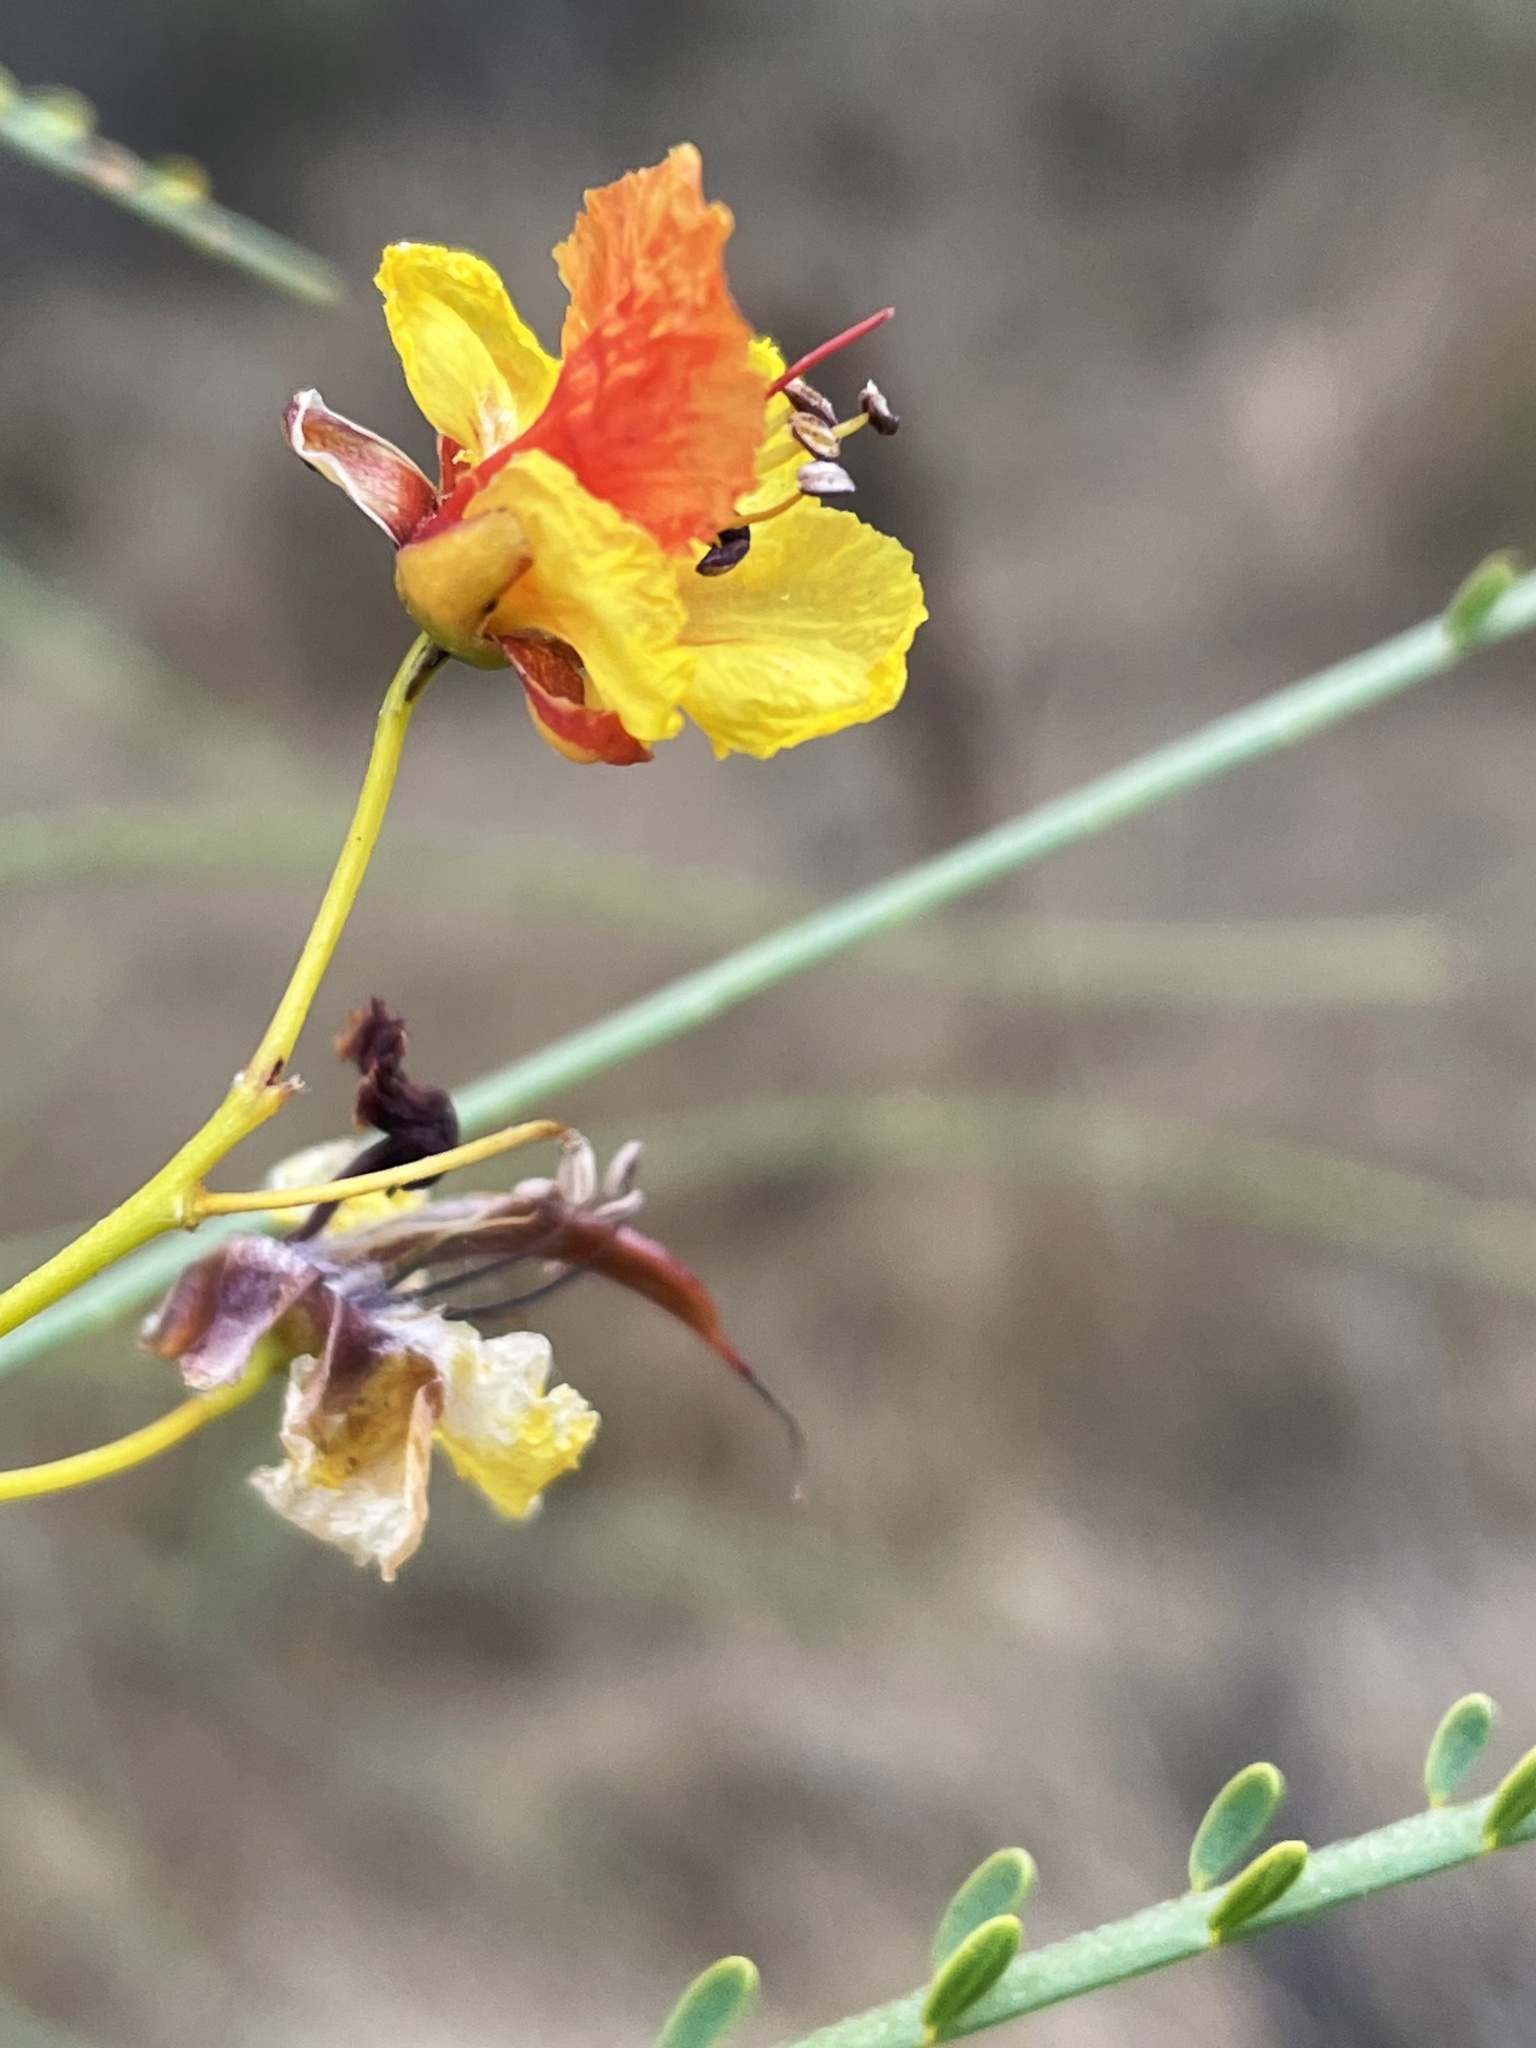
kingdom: Plantae
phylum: Tracheophyta
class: Magnoliopsida
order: Fabales
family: Fabaceae
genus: Parkinsonia
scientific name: Parkinsonia aculeata
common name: Jerusalem thorn
